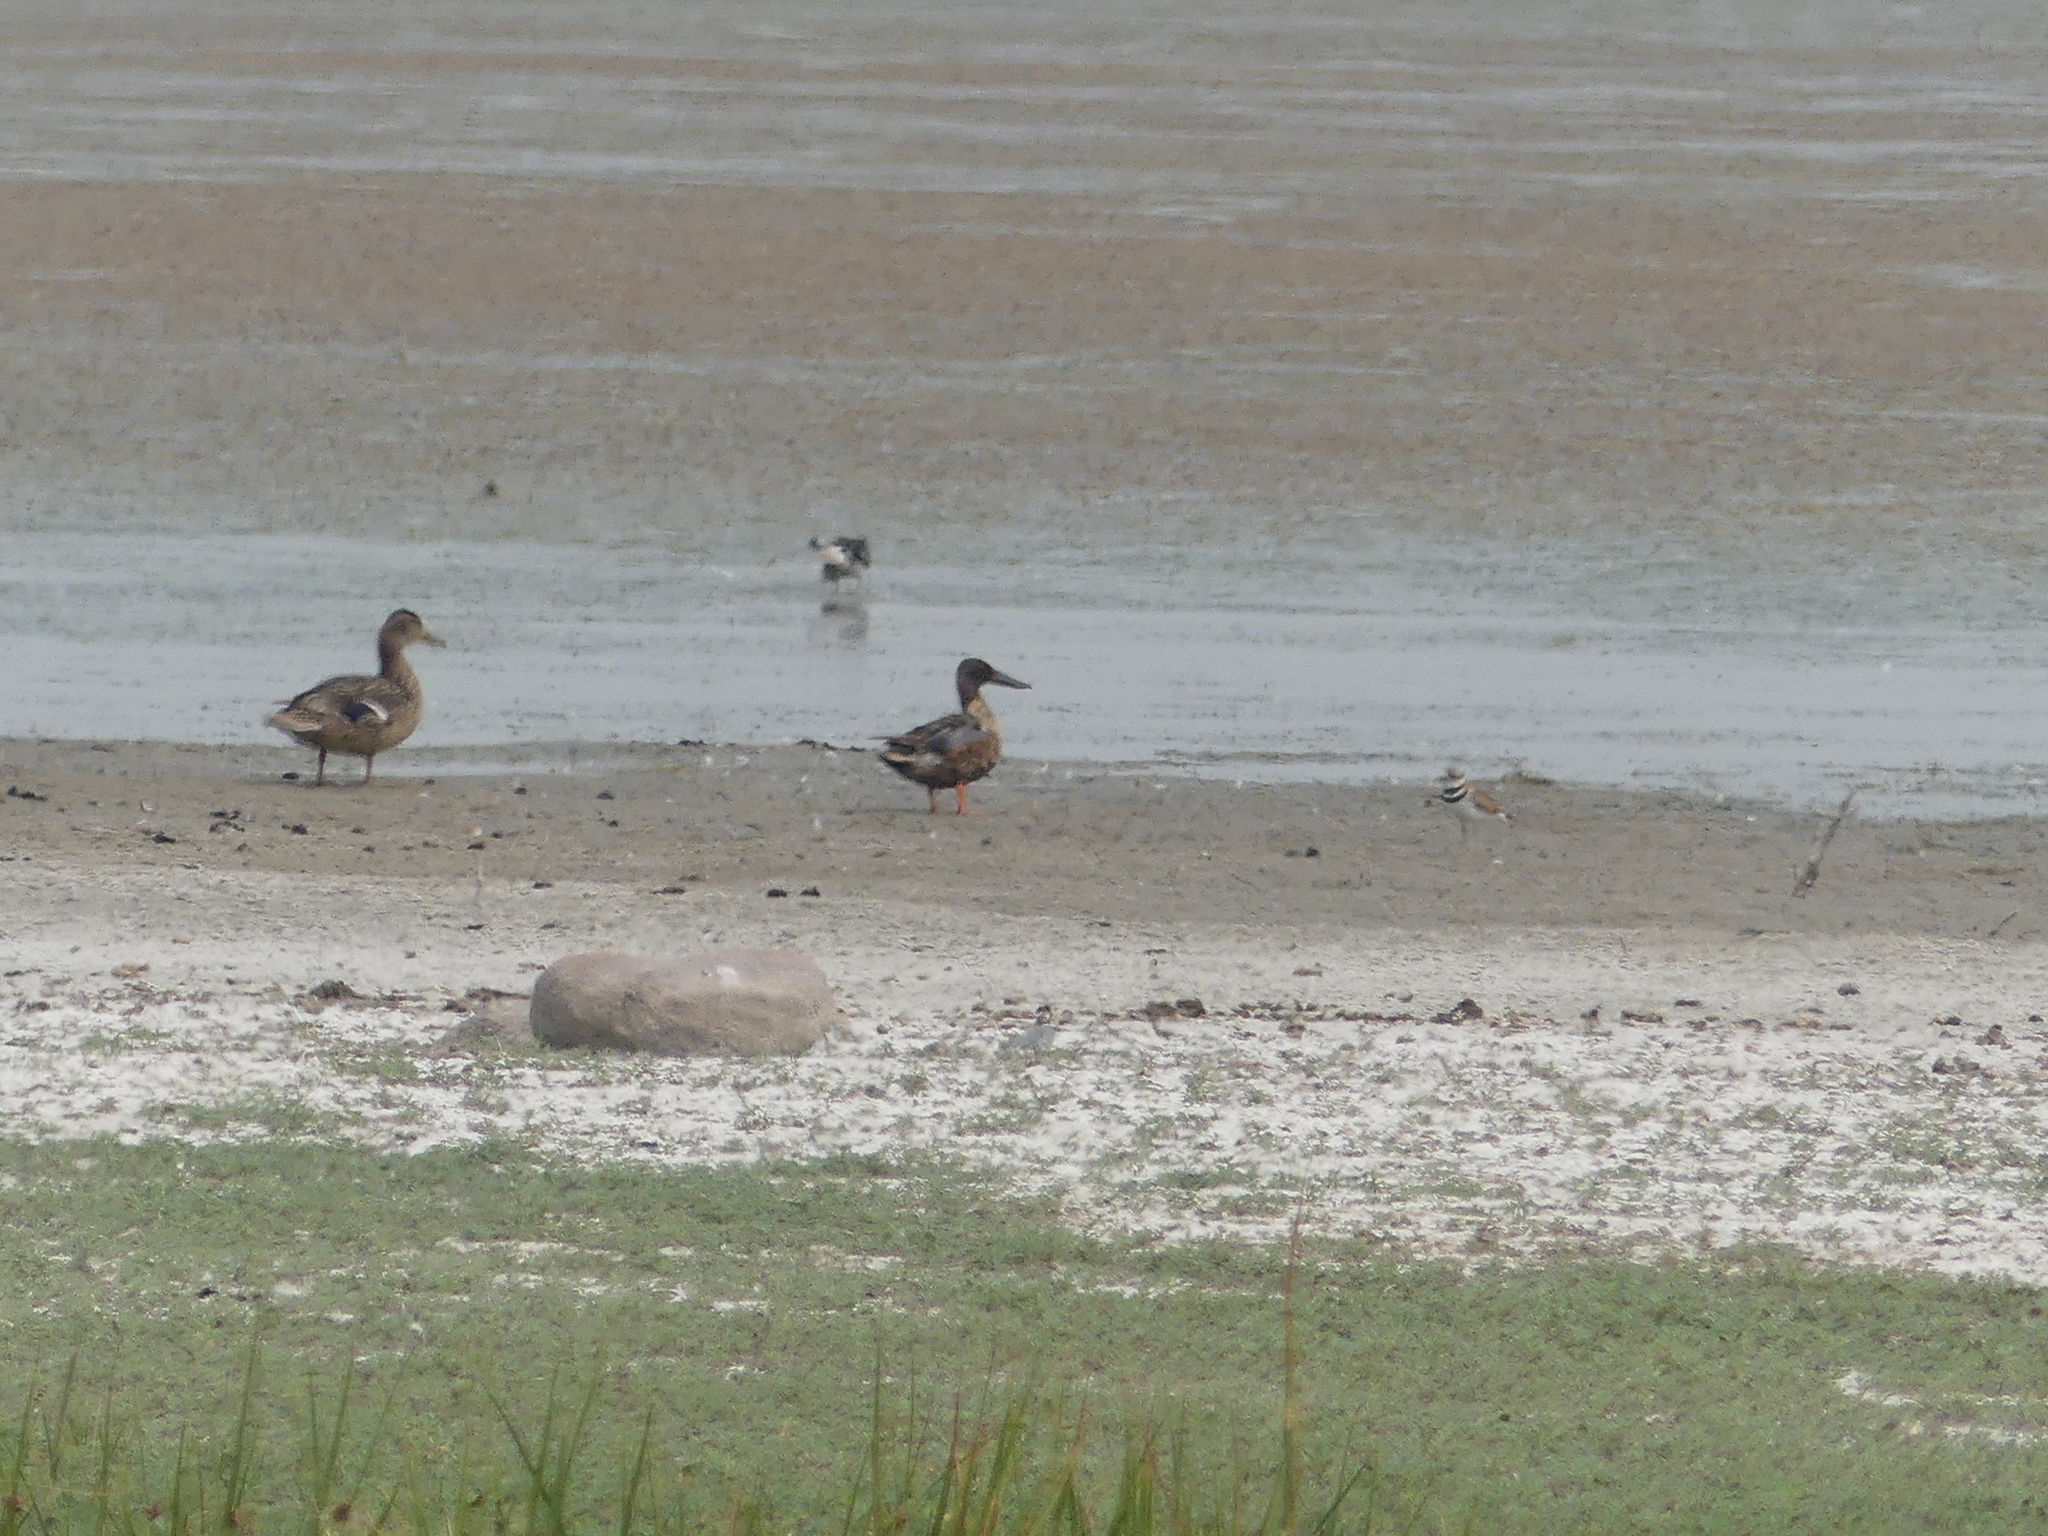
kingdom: Animalia
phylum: Chordata
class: Aves
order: Anseriformes
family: Anatidae
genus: Spatula
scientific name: Spatula clypeata
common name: Northern shoveler
